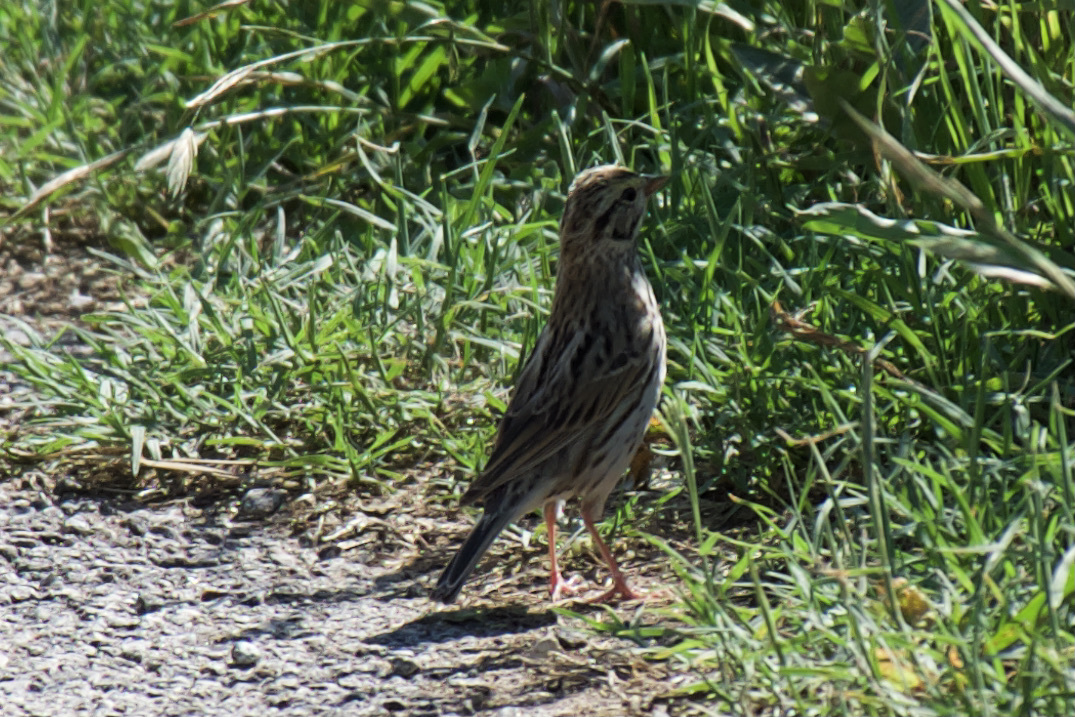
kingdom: Animalia
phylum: Chordata
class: Aves
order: Passeriformes
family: Passerellidae
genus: Passerculus
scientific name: Passerculus sandwichensis
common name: Savannah sparrow
